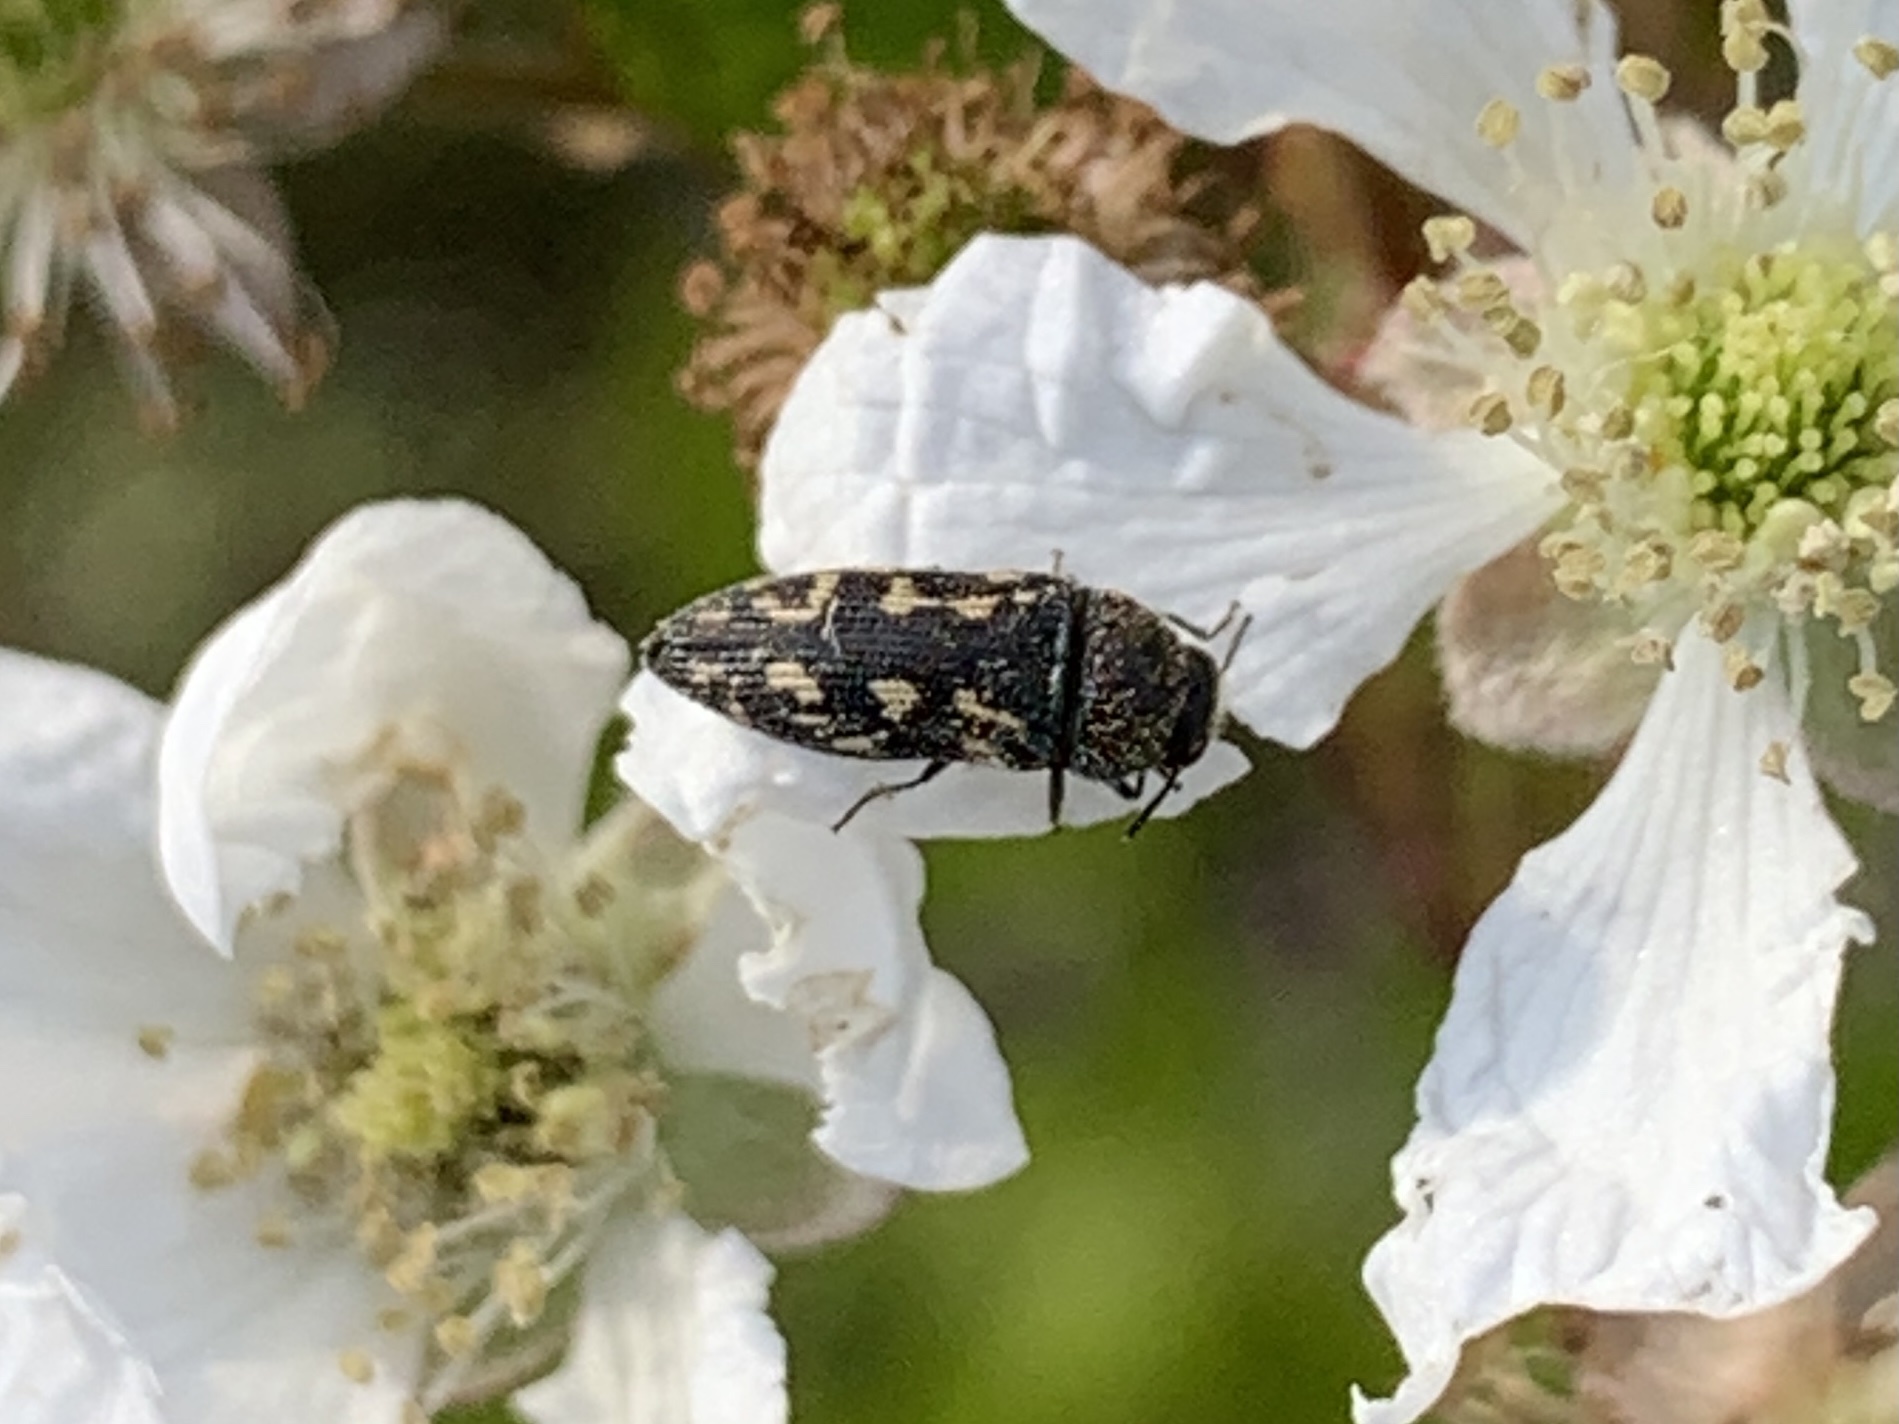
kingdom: Animalia
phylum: Arthropoda
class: Insecta
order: Coleoptera
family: Buprestidae
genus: Acmaeodera
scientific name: Acmaeodera tubulus
